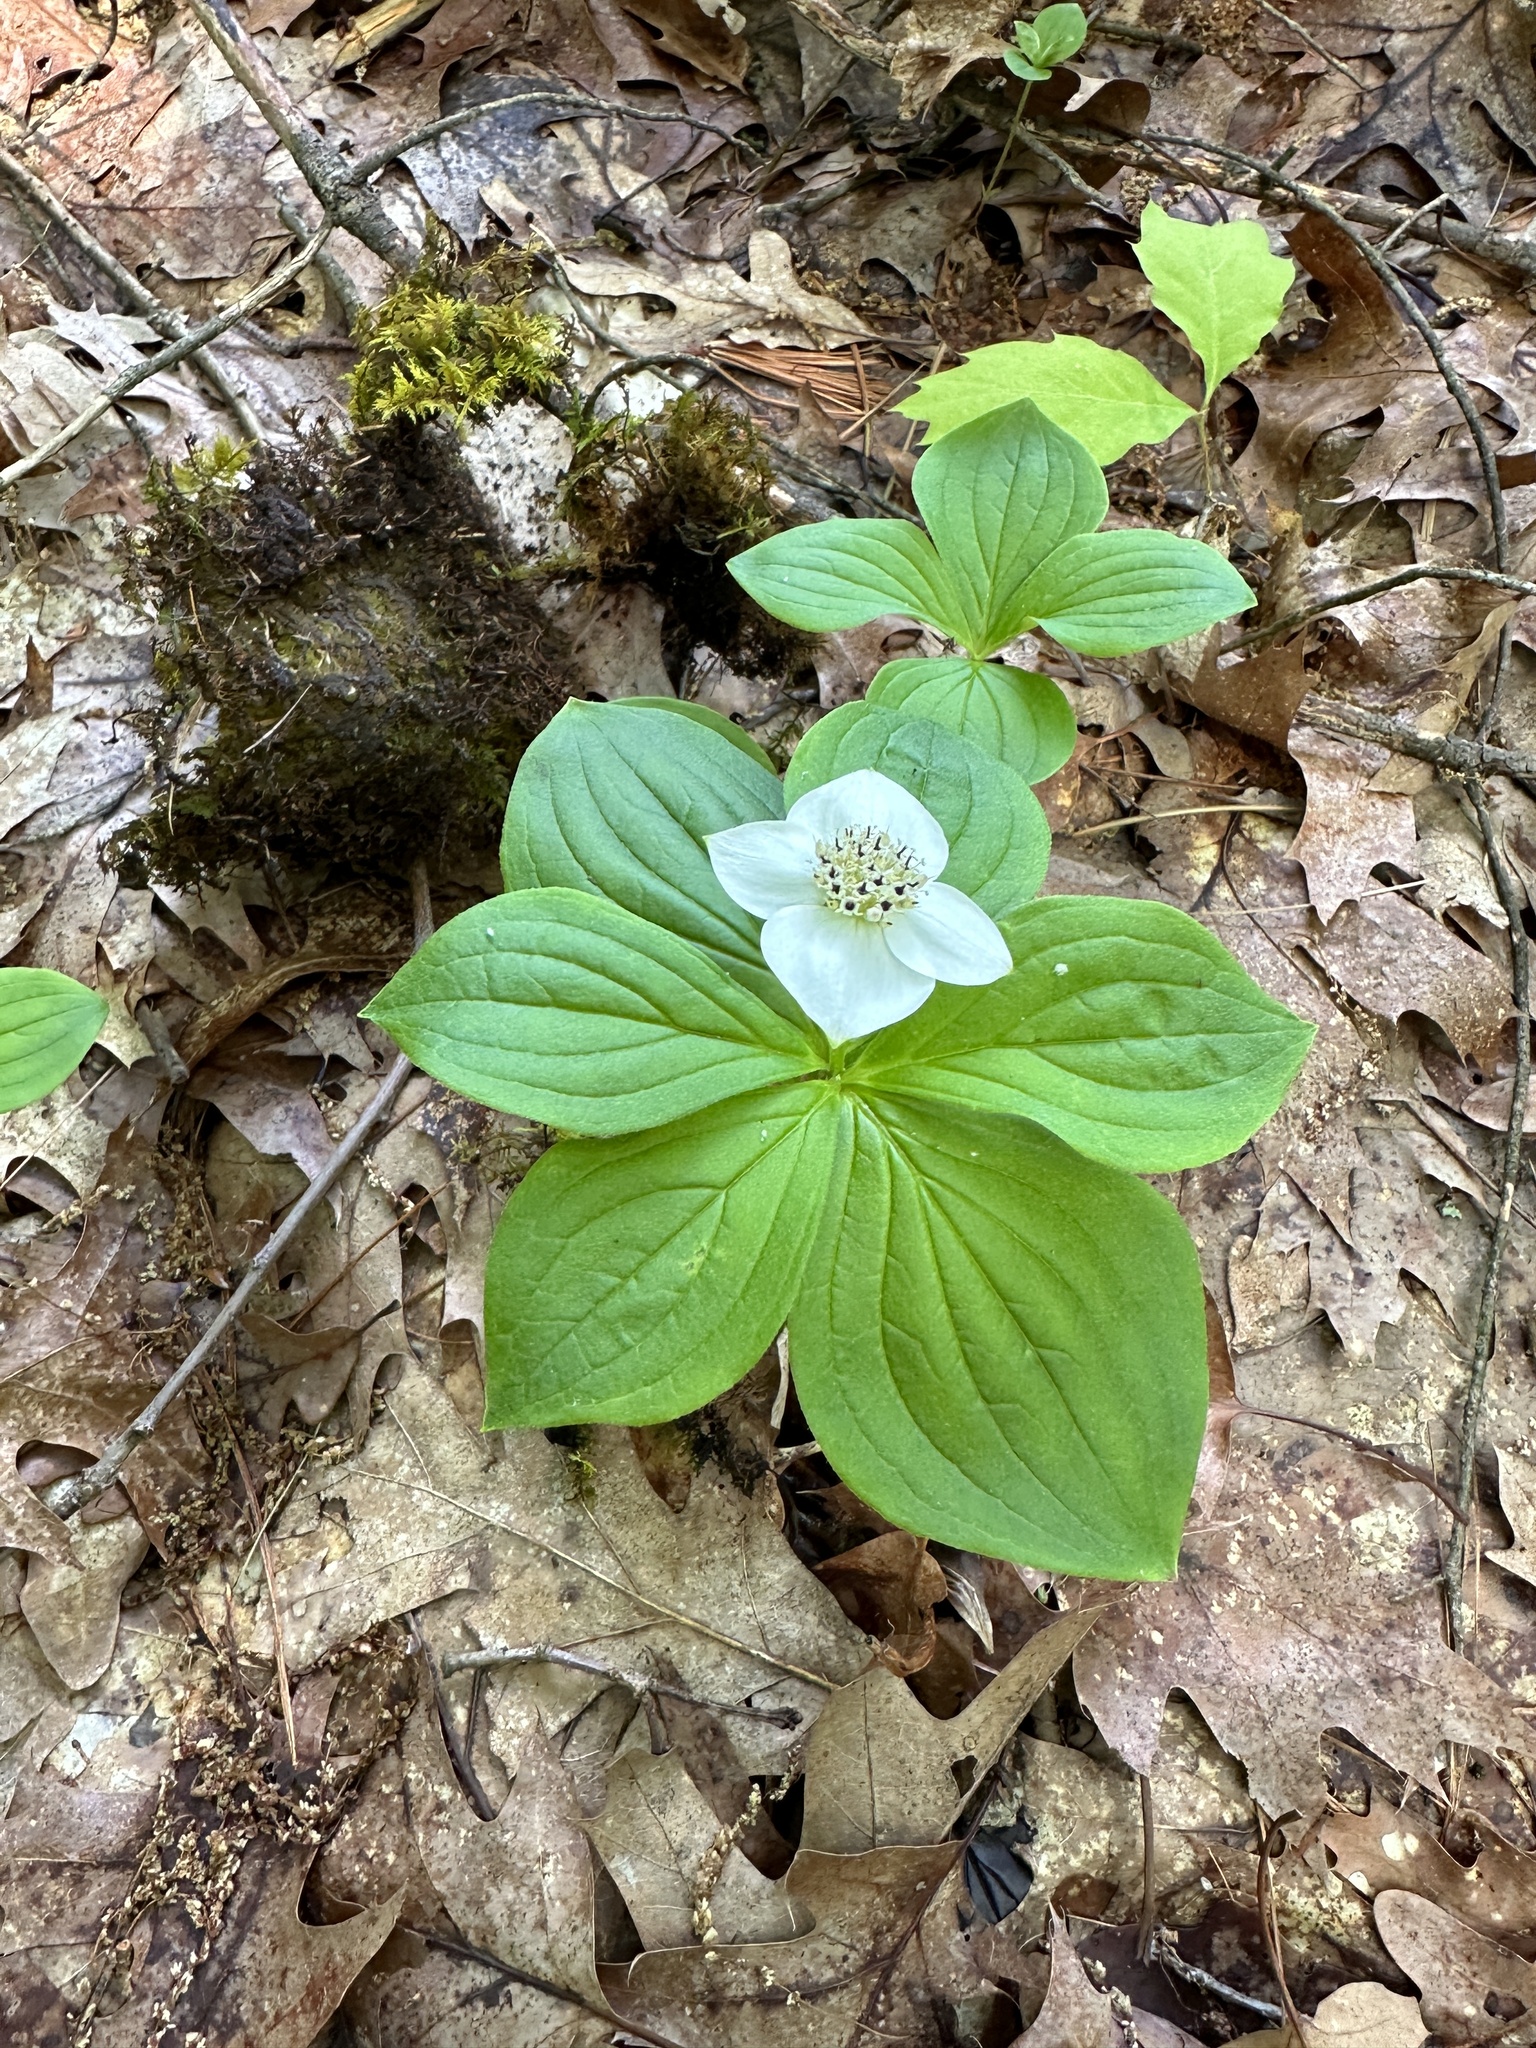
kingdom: Plantae
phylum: Tracheophyta
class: Magnoliopsida
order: Cornales
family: Cornaceae
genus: Cornus
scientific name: Cornus canadensis
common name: Creeping dogwood
